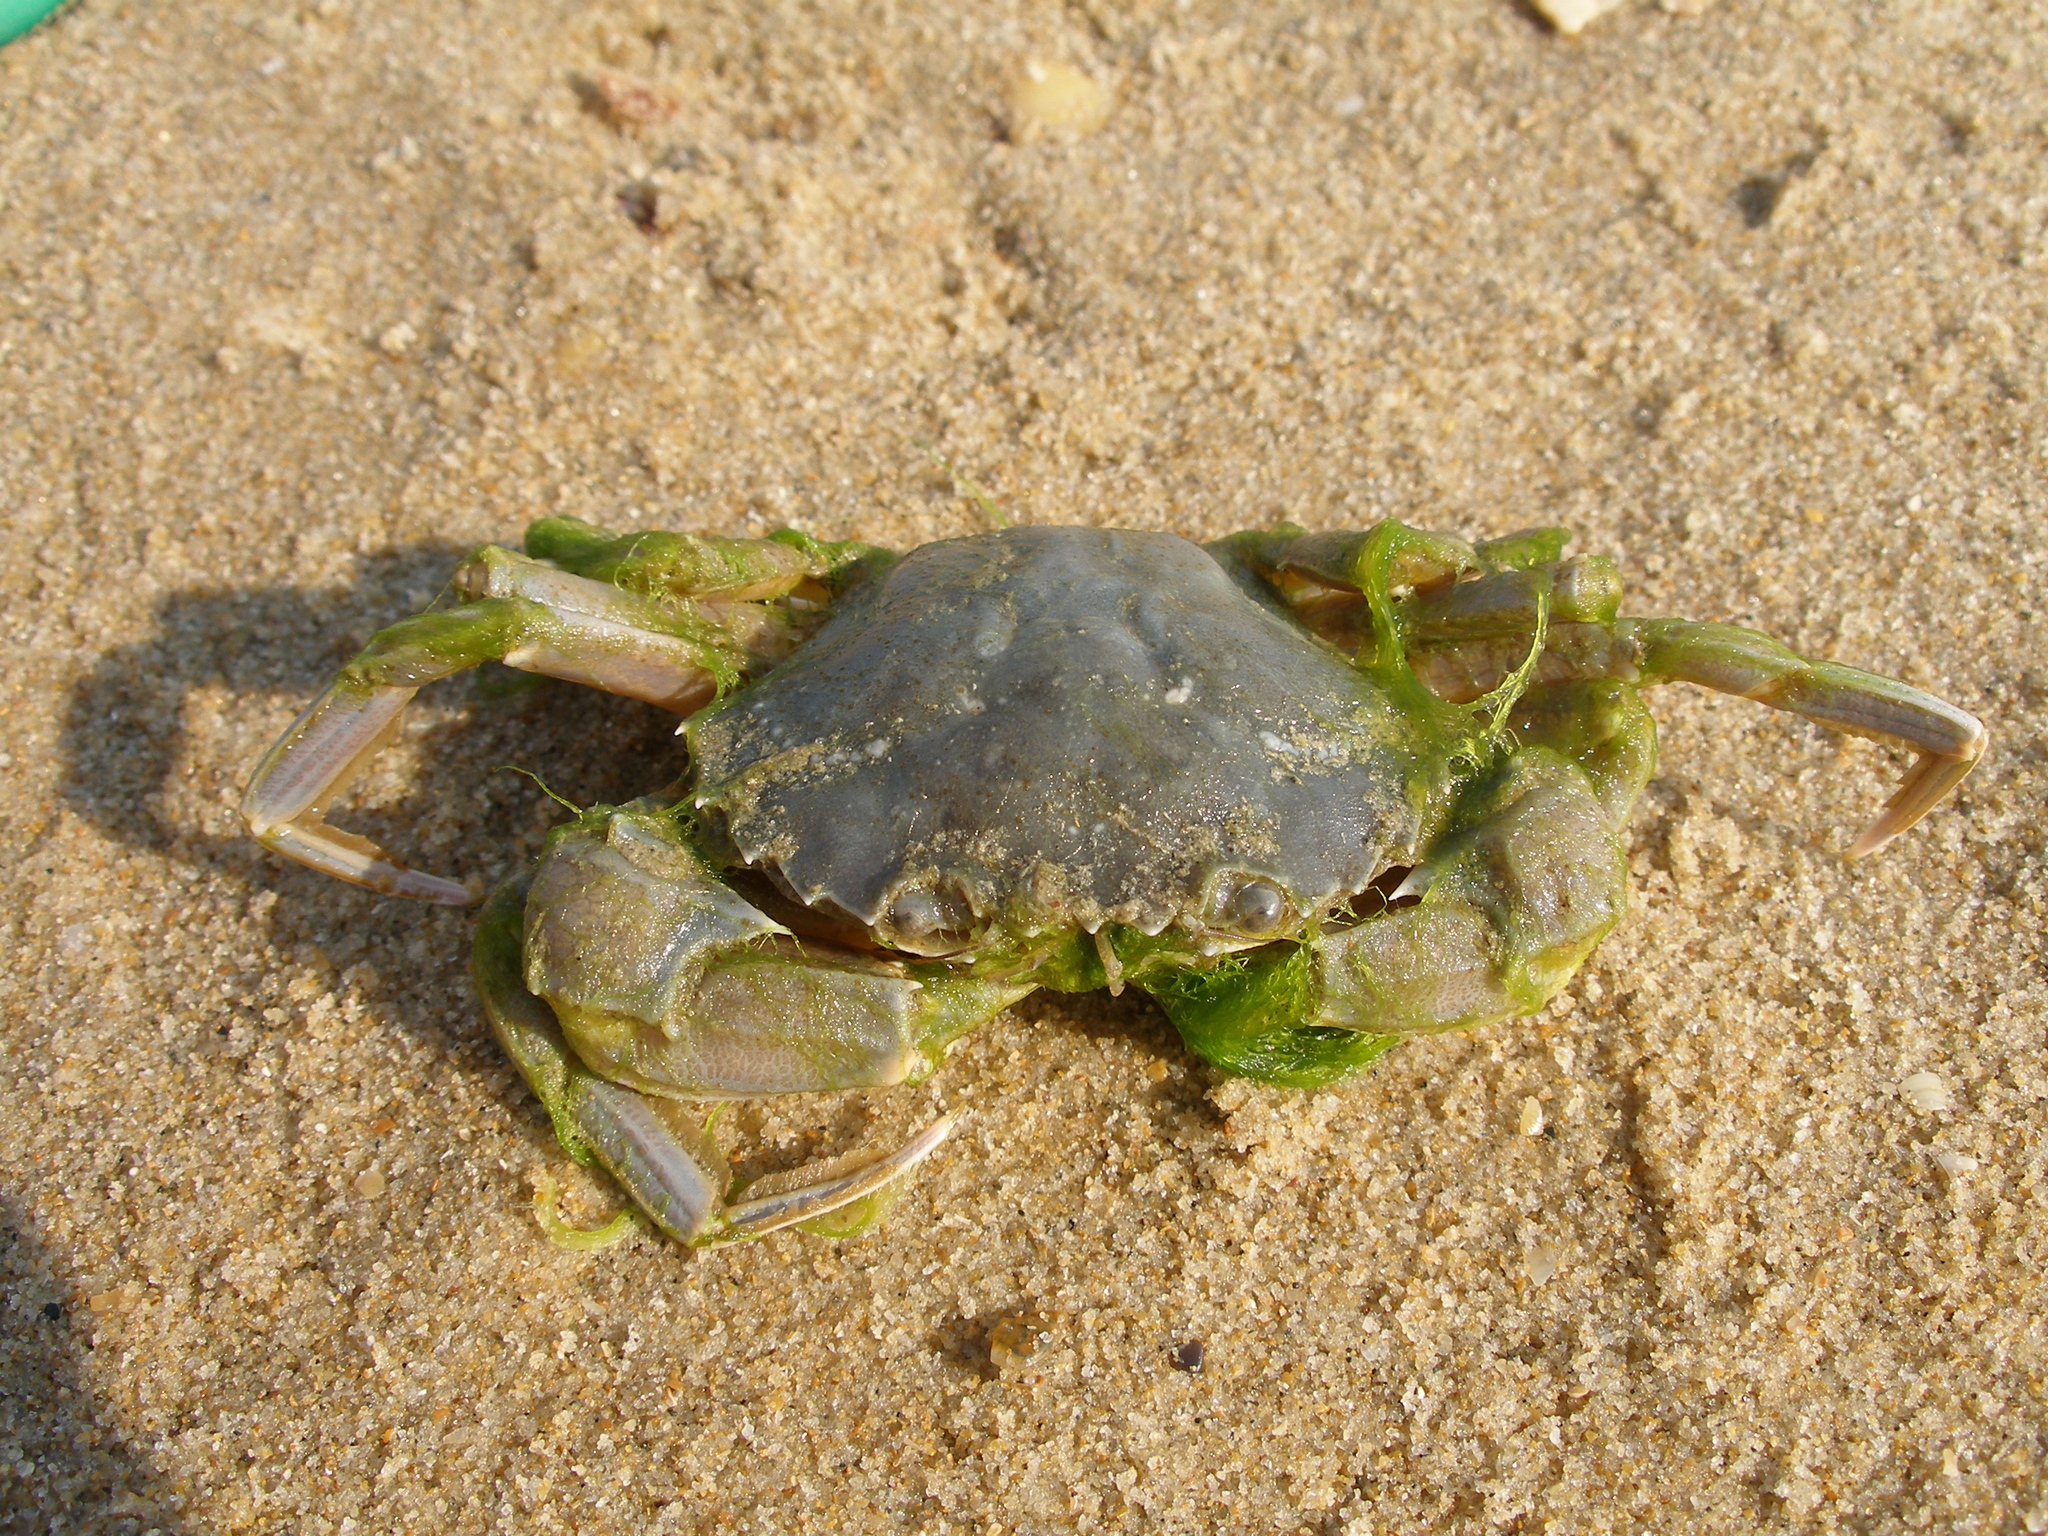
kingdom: Animalia
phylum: Arthropoda
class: Malacostraca
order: Decapoda
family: Polybiidae
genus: Liocarcinus
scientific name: Liocarcinus vernalis
